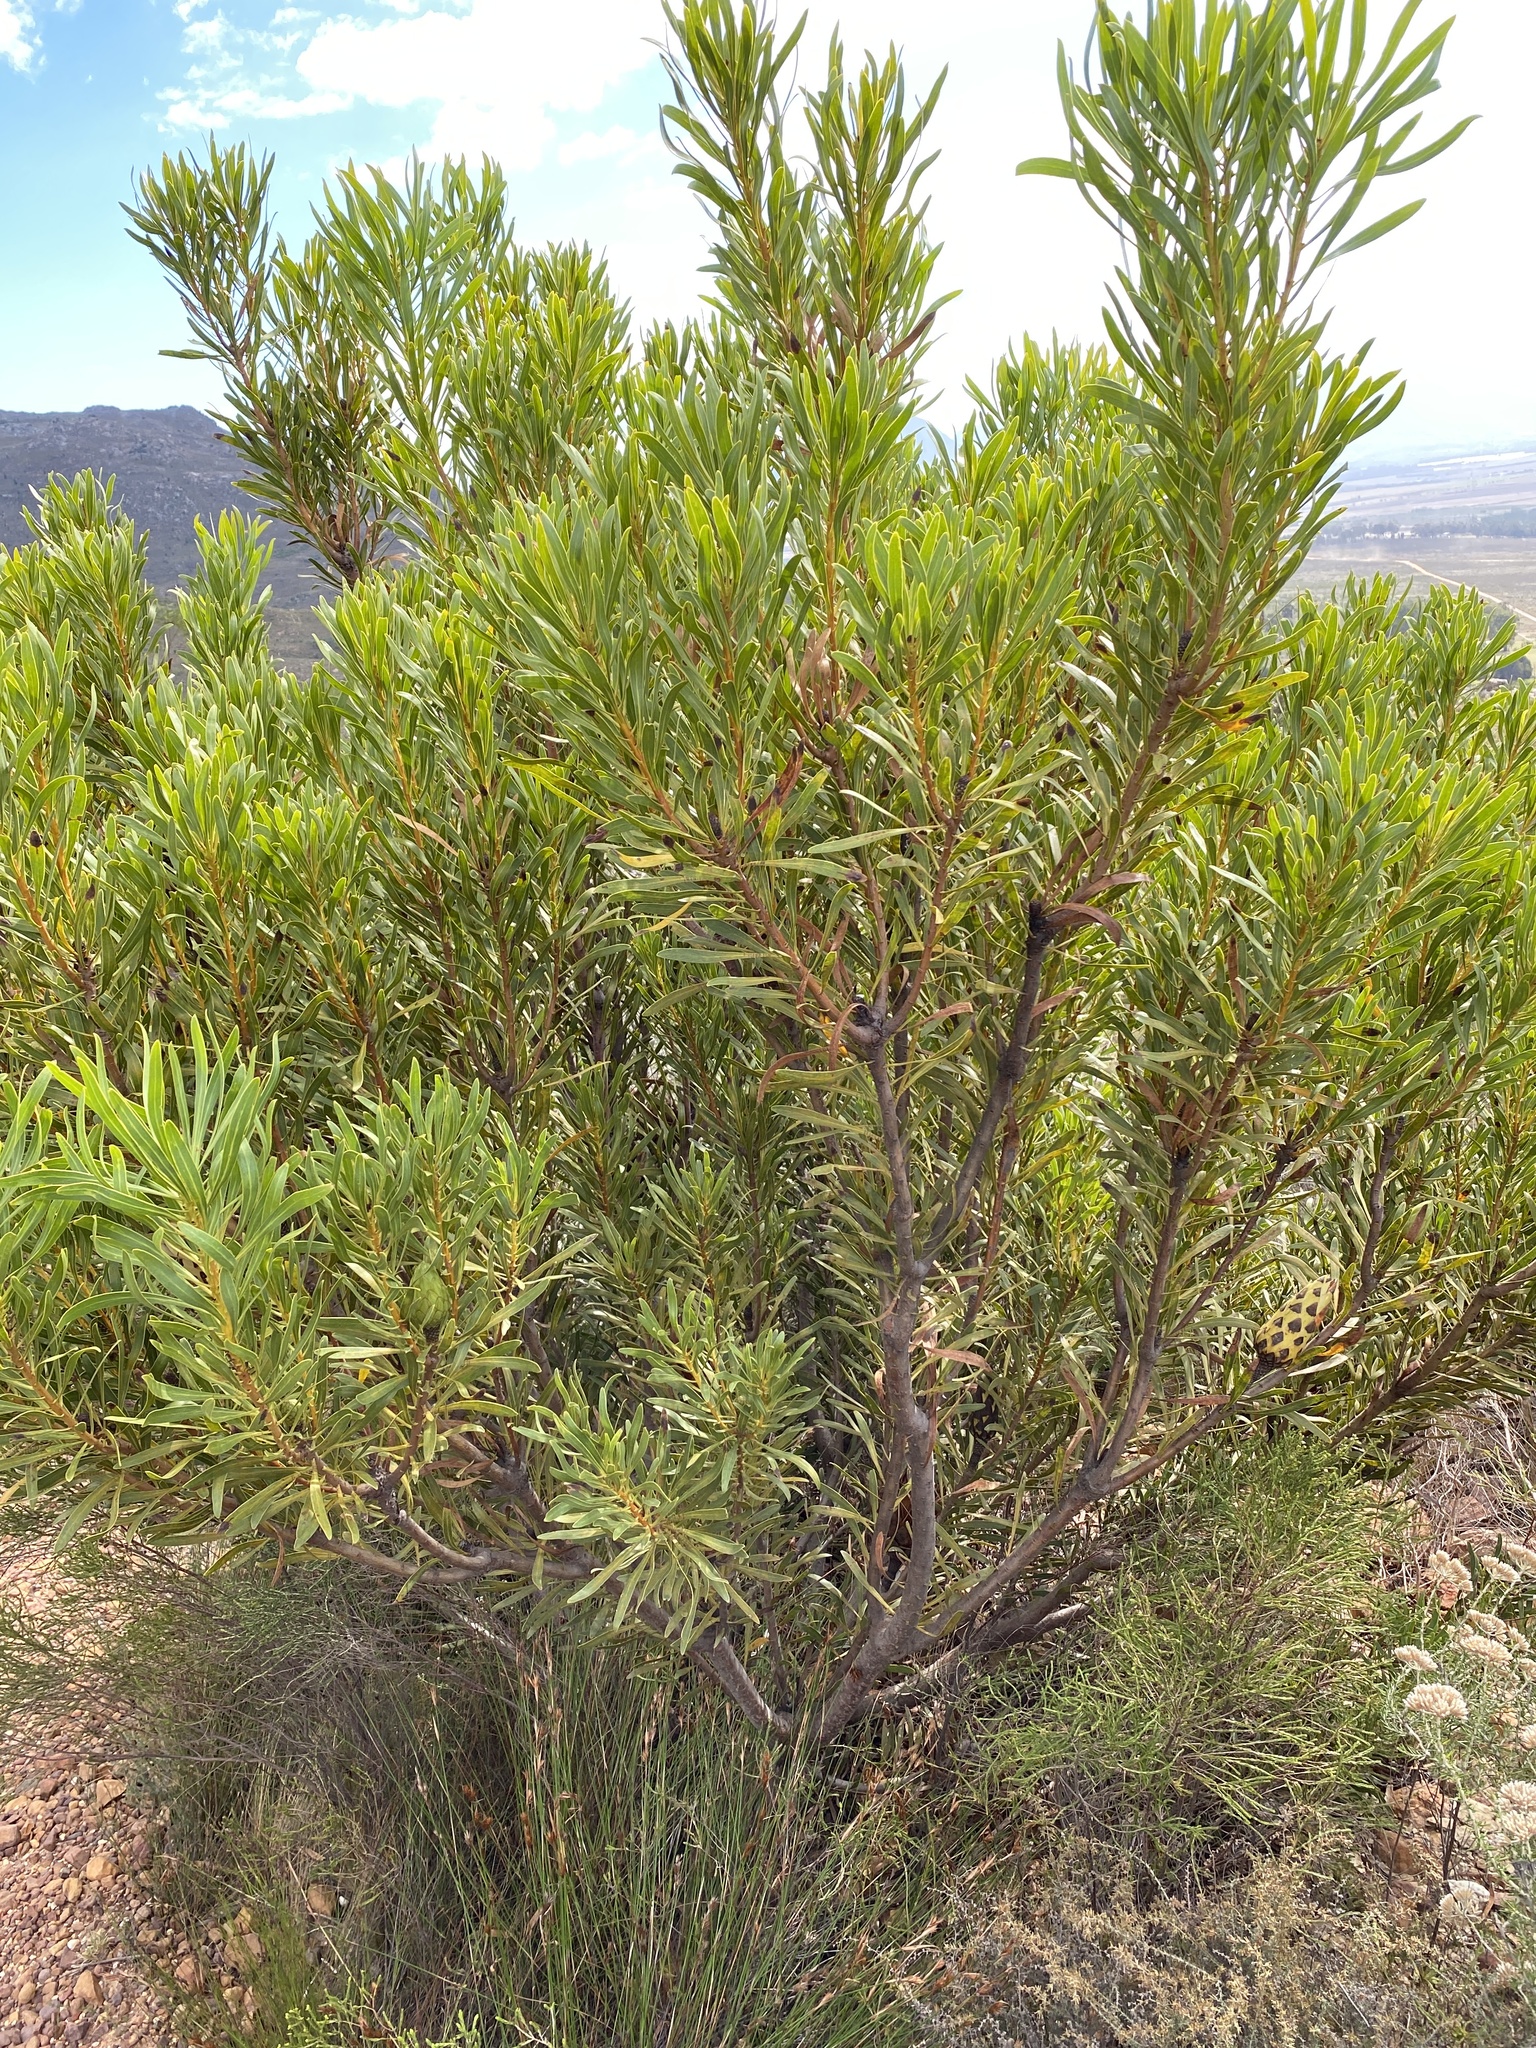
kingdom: Plantae
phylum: Tracheophyta
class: Magnoliopsida
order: Proteales
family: Proteaceae
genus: Protea
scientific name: Protea repens
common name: Sugarbush
